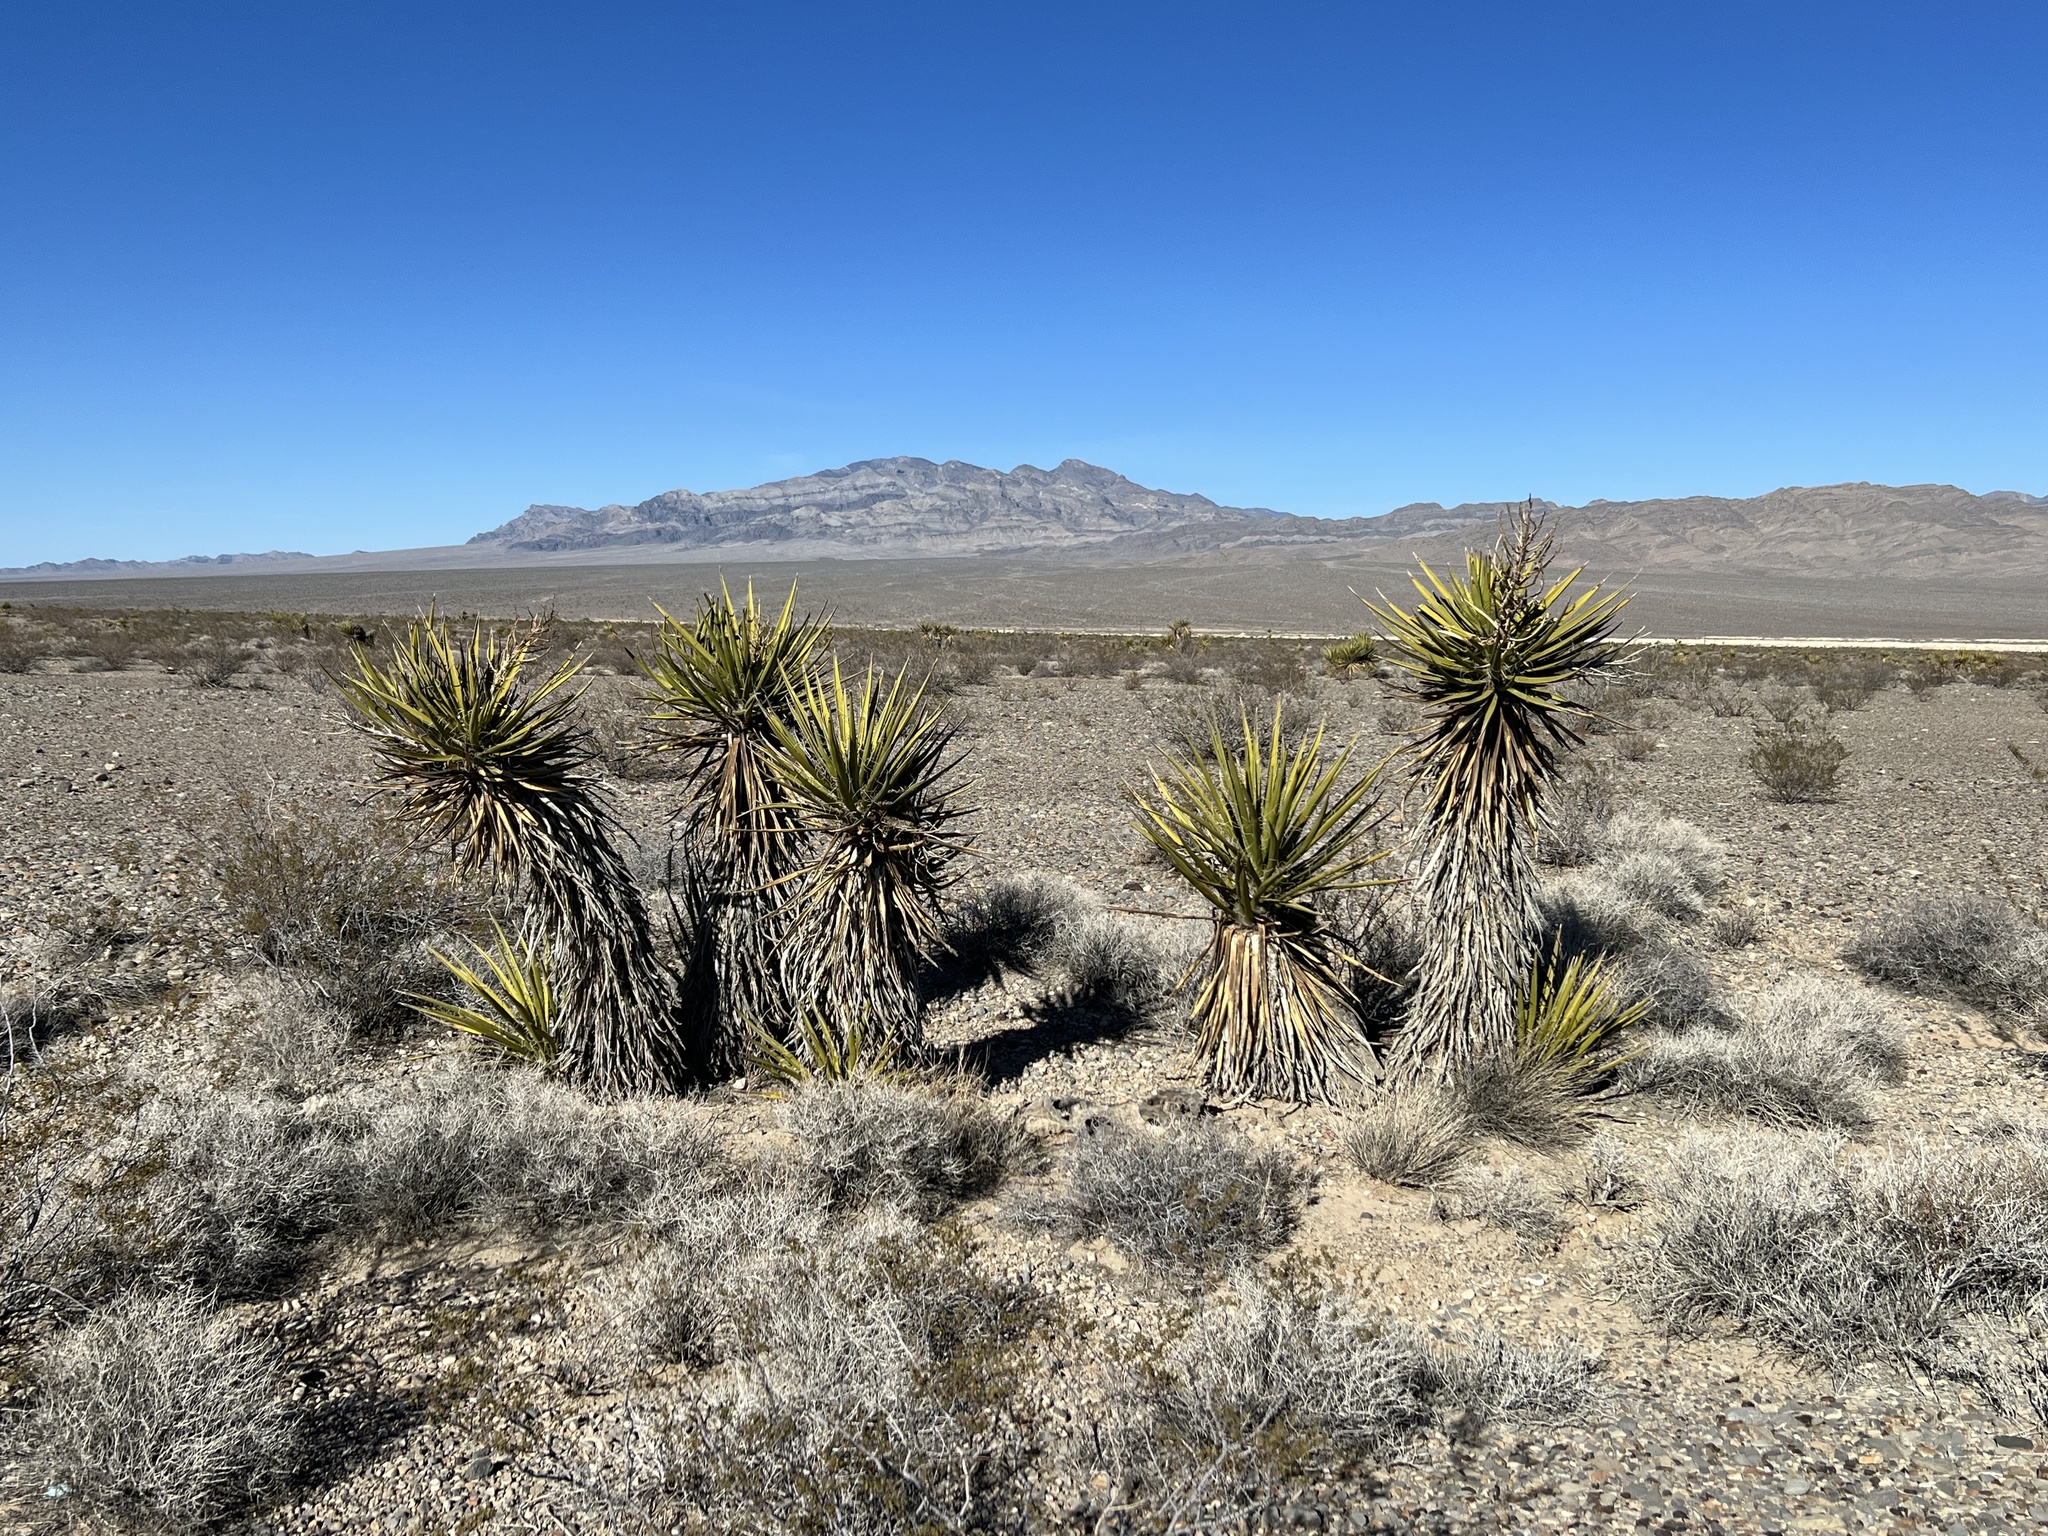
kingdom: Plantae
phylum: Tracheophyta
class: Liliopsida
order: Asparagales
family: Asparagaceae
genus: Yucca
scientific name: Yucca schidigera
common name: Mojave yucca
